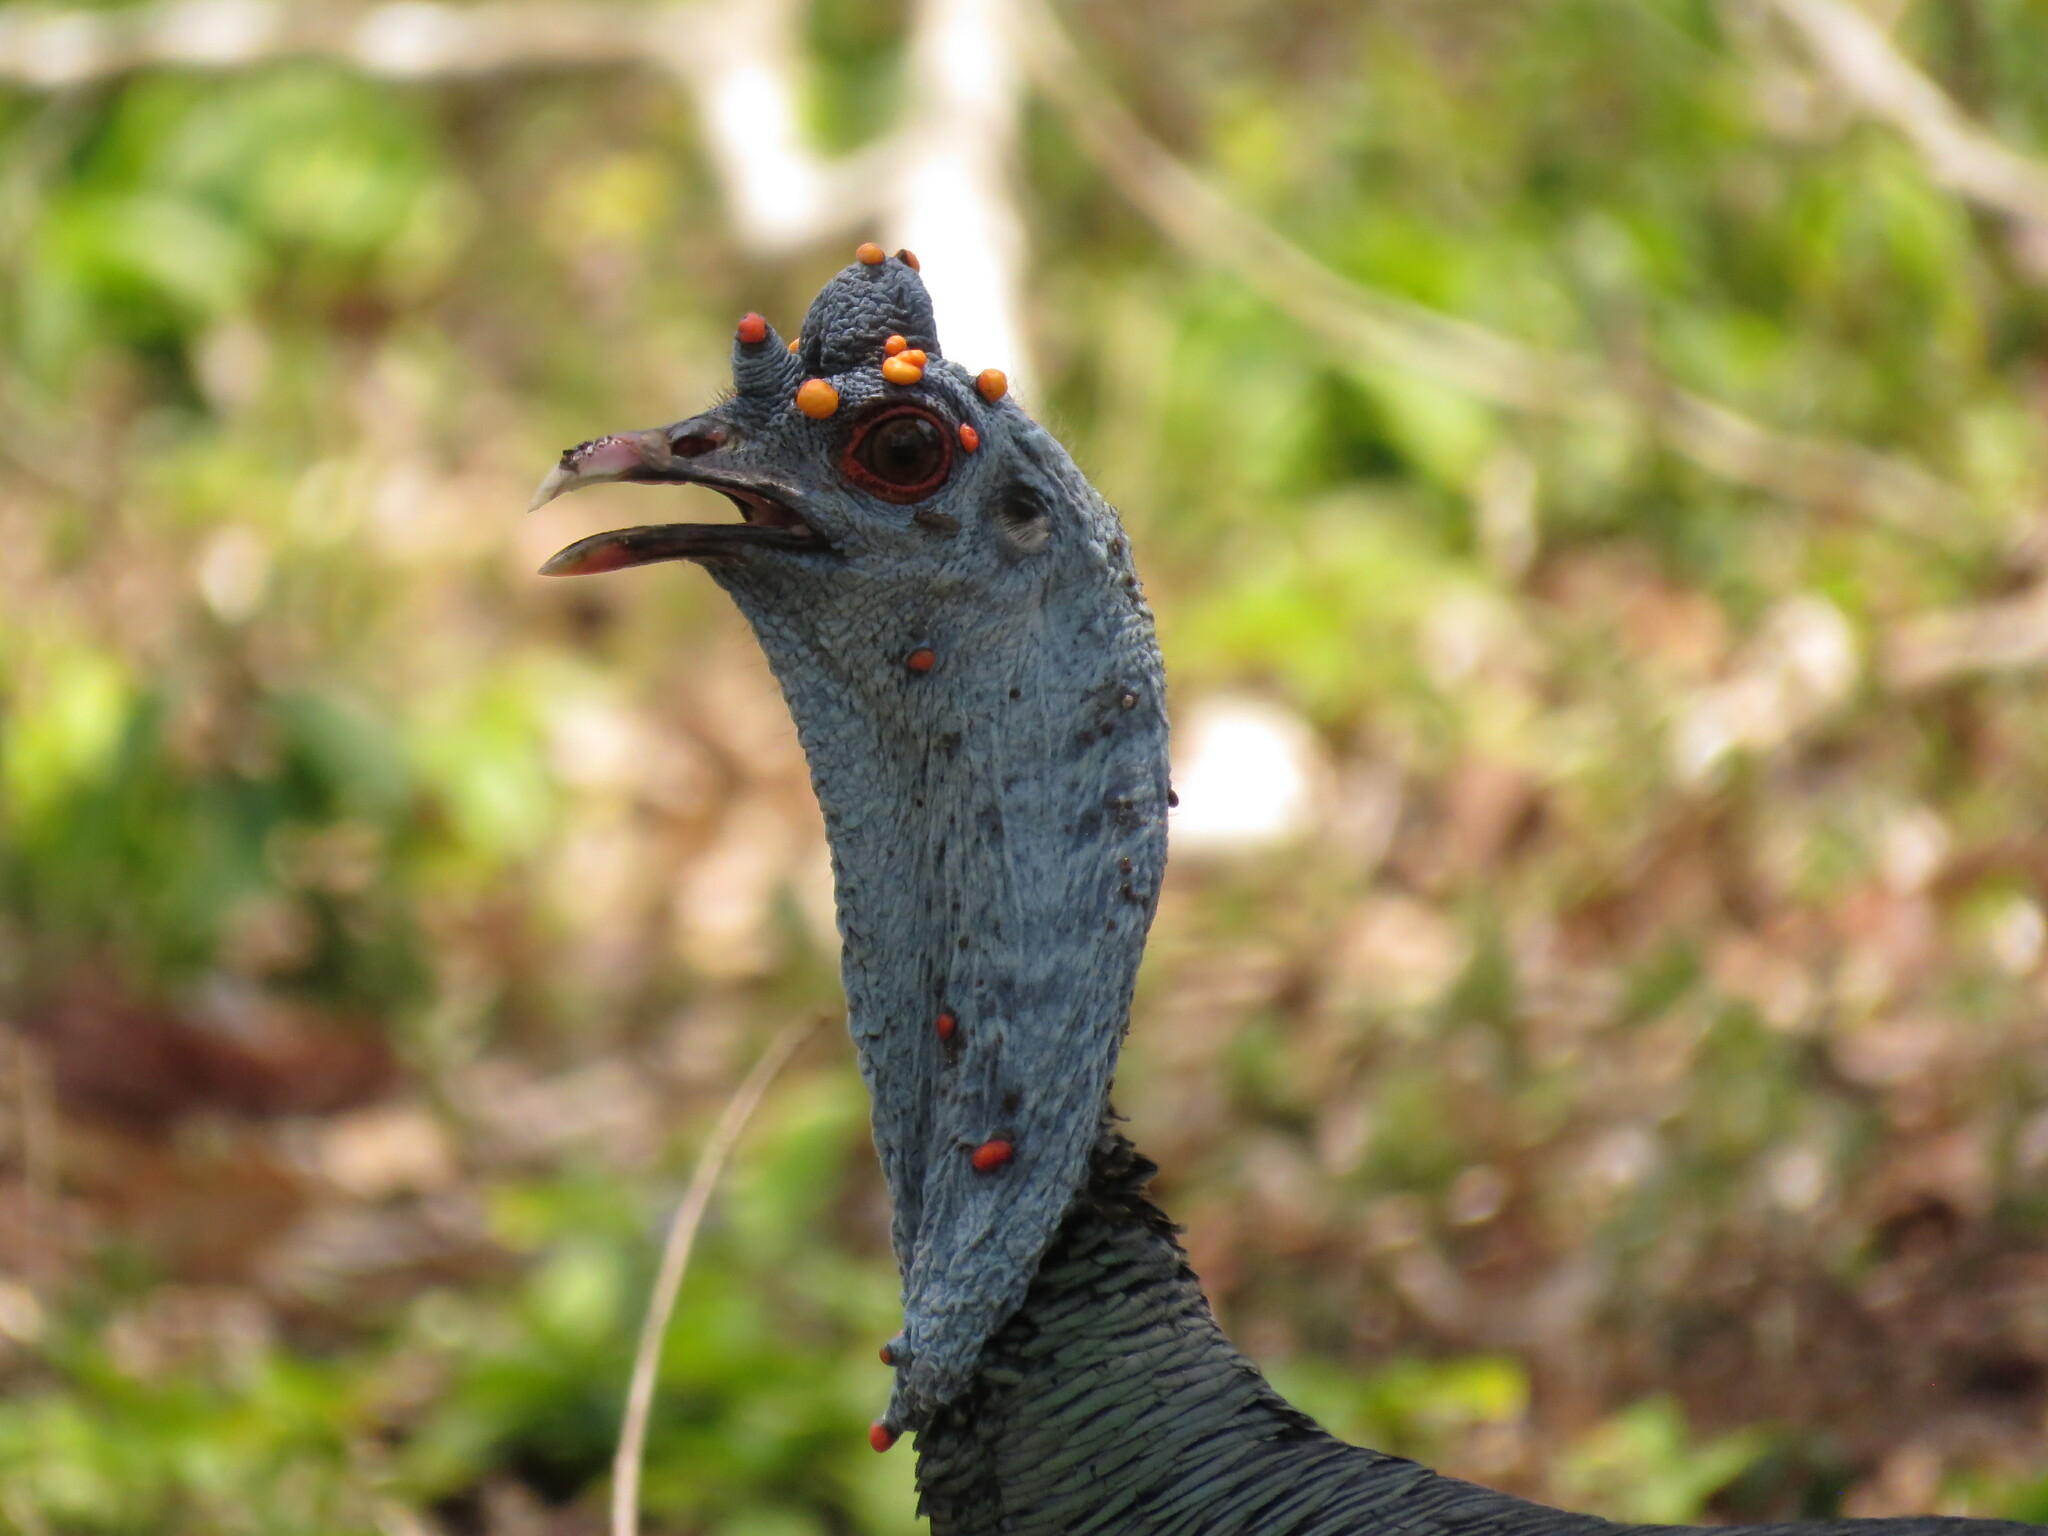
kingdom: Animalia
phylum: Chordata
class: Aves
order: Galliformes
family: Phasianidae
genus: Meleagris
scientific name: Meleagris ocellata
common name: Ocellated turkey
